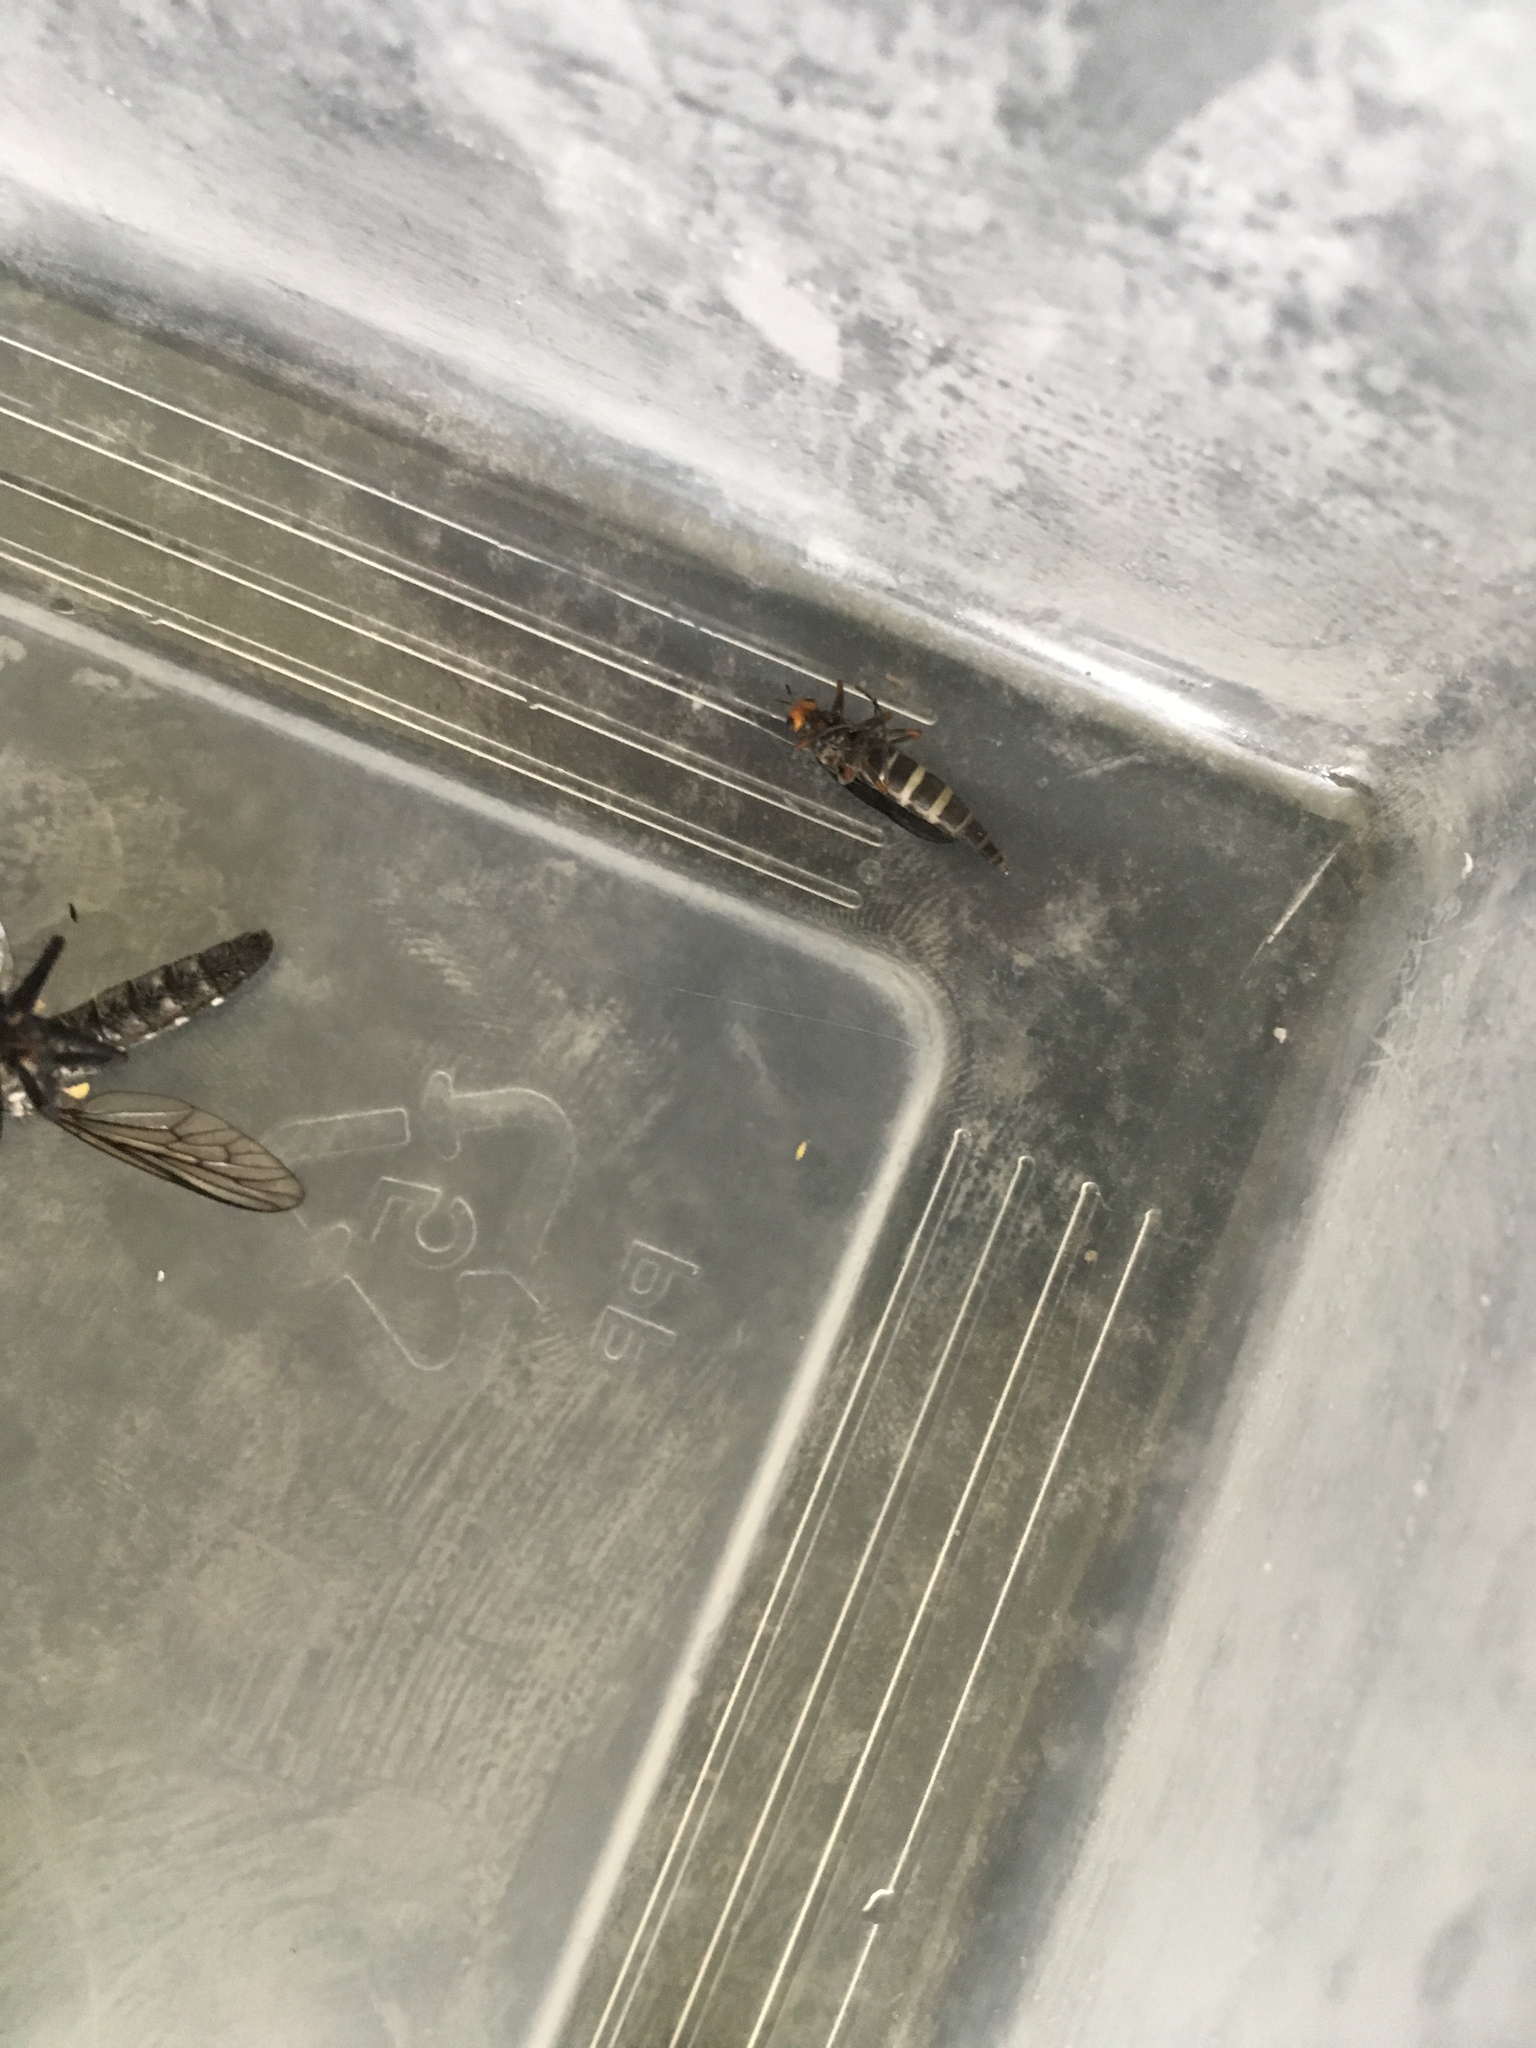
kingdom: Animalia
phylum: Arthropoda
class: Insecta
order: Diptera
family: Stratiomyidae
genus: Inopus
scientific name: Inopus rubriceps
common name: Soldier fly
